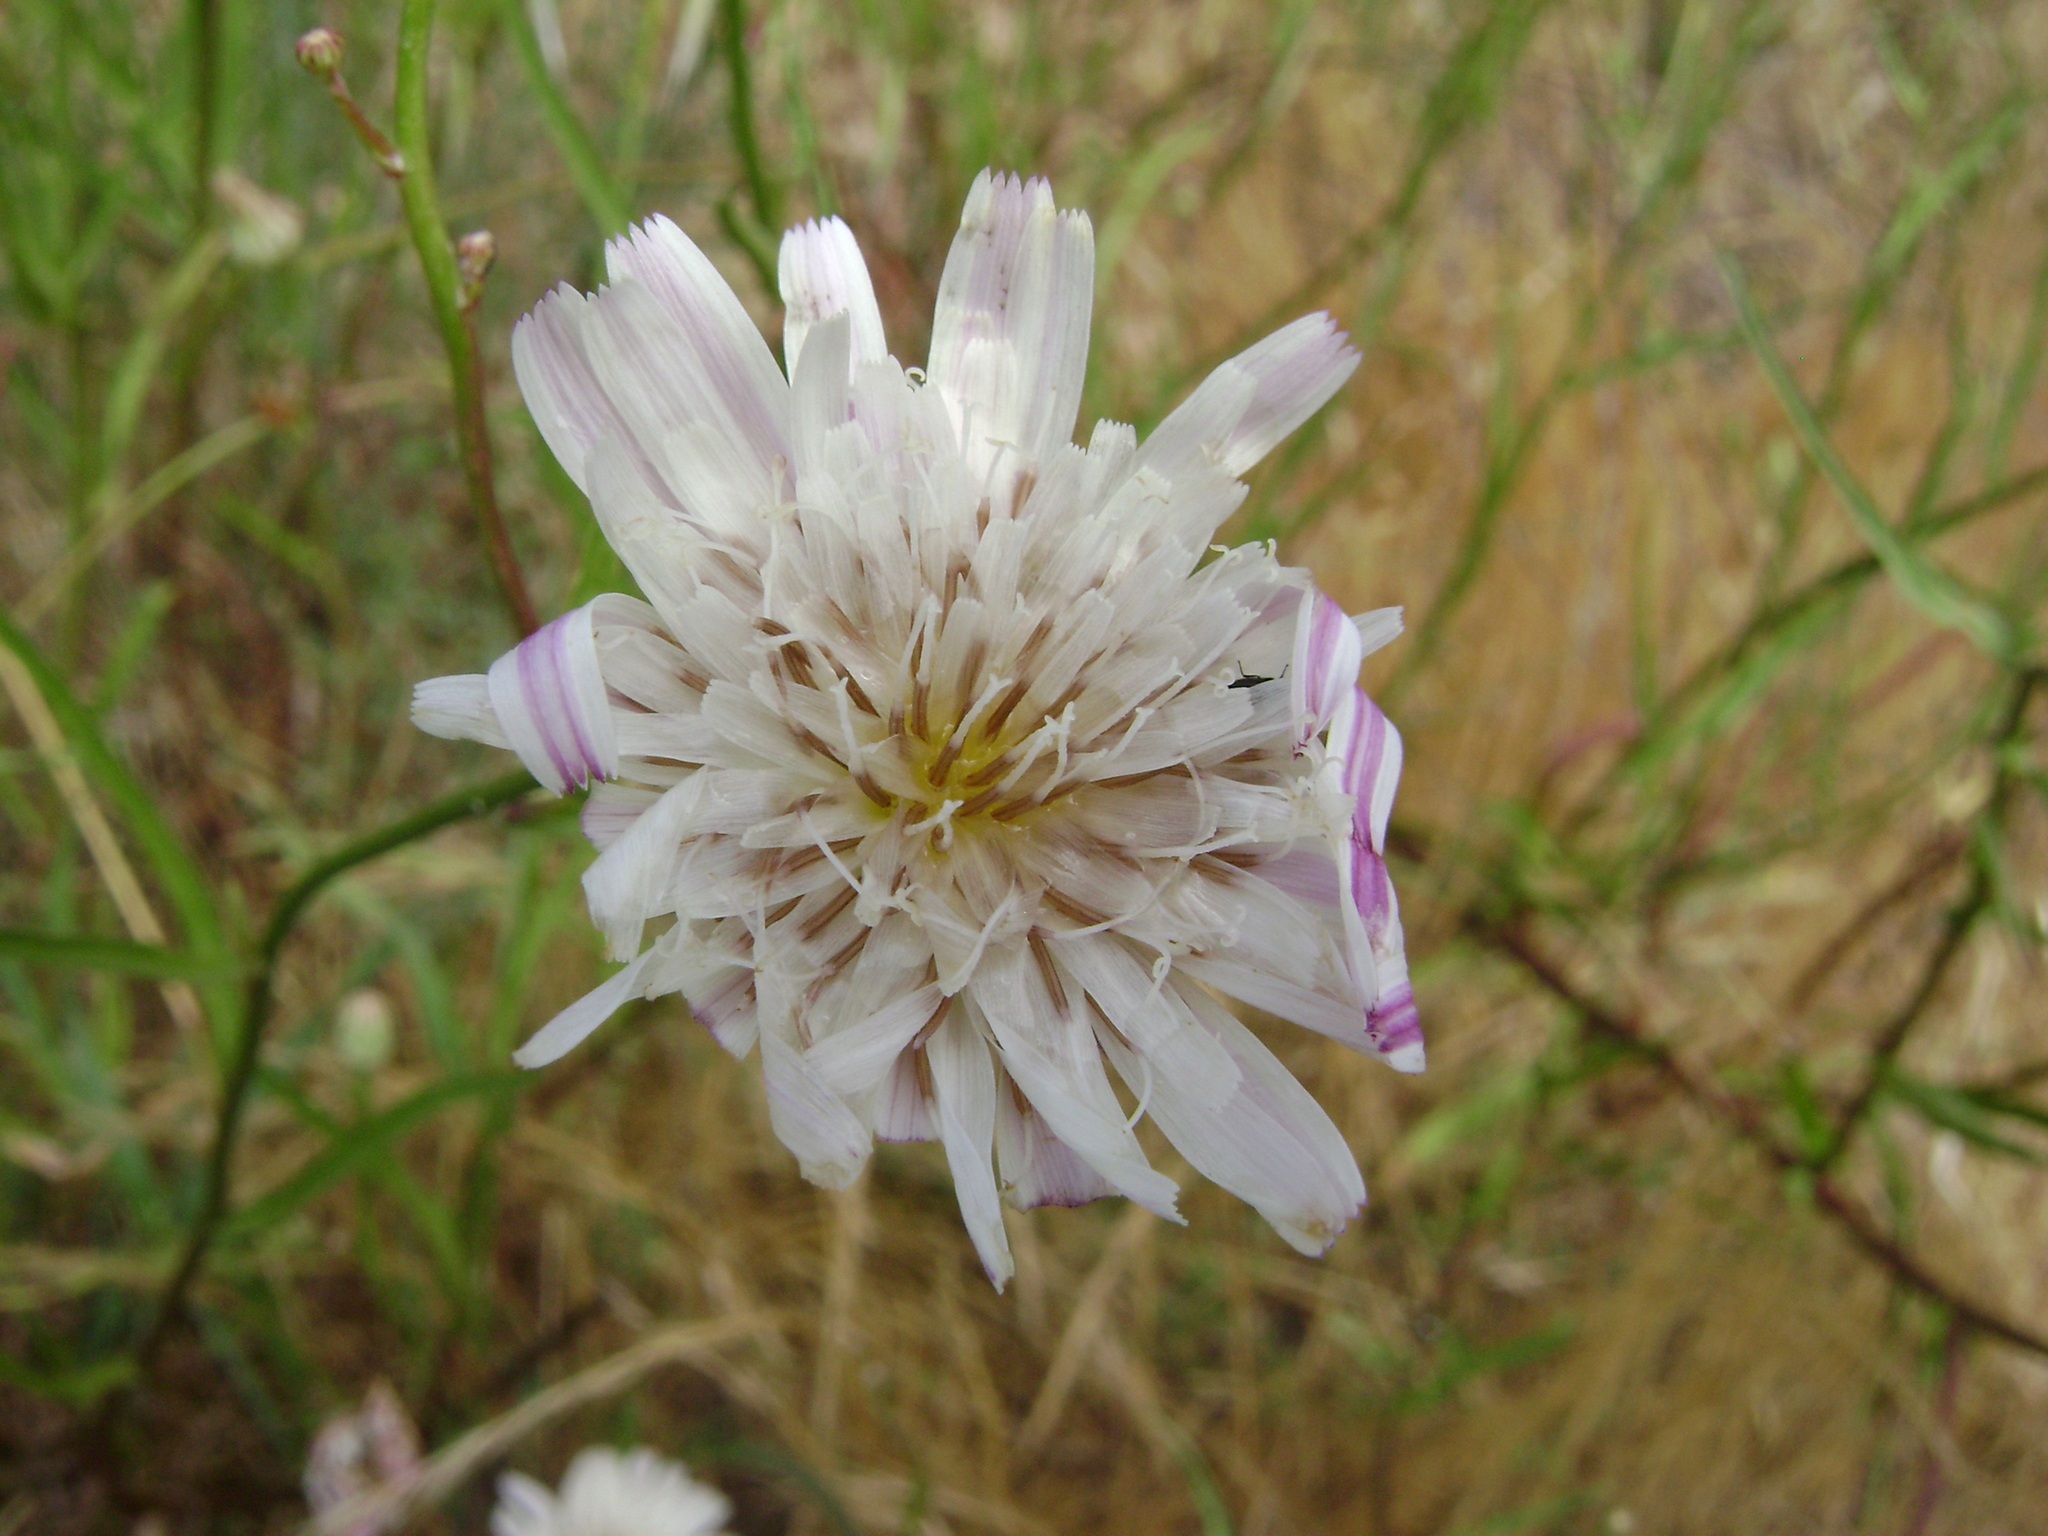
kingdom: Plantae
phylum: Tracheophyta
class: Magnoliopsida
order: Asterales
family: Asteraceae
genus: Malacothrix
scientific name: Malacothrix saxatilis
